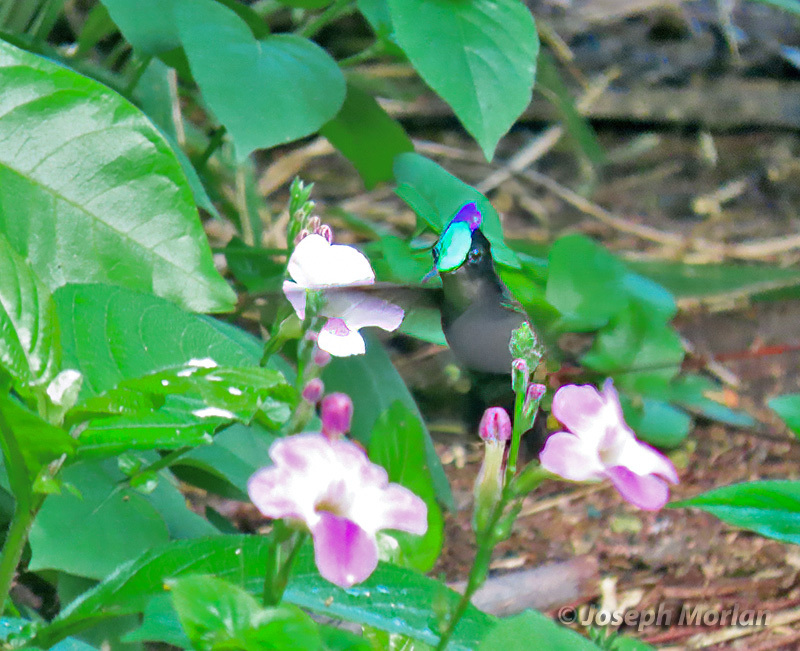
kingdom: Animalia
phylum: Chordata
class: Aves
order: Apodiformes
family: Trochilidae
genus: Orthorhyncus
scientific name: Orthorhyncus cristatus
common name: Antillean crested hummingbird
